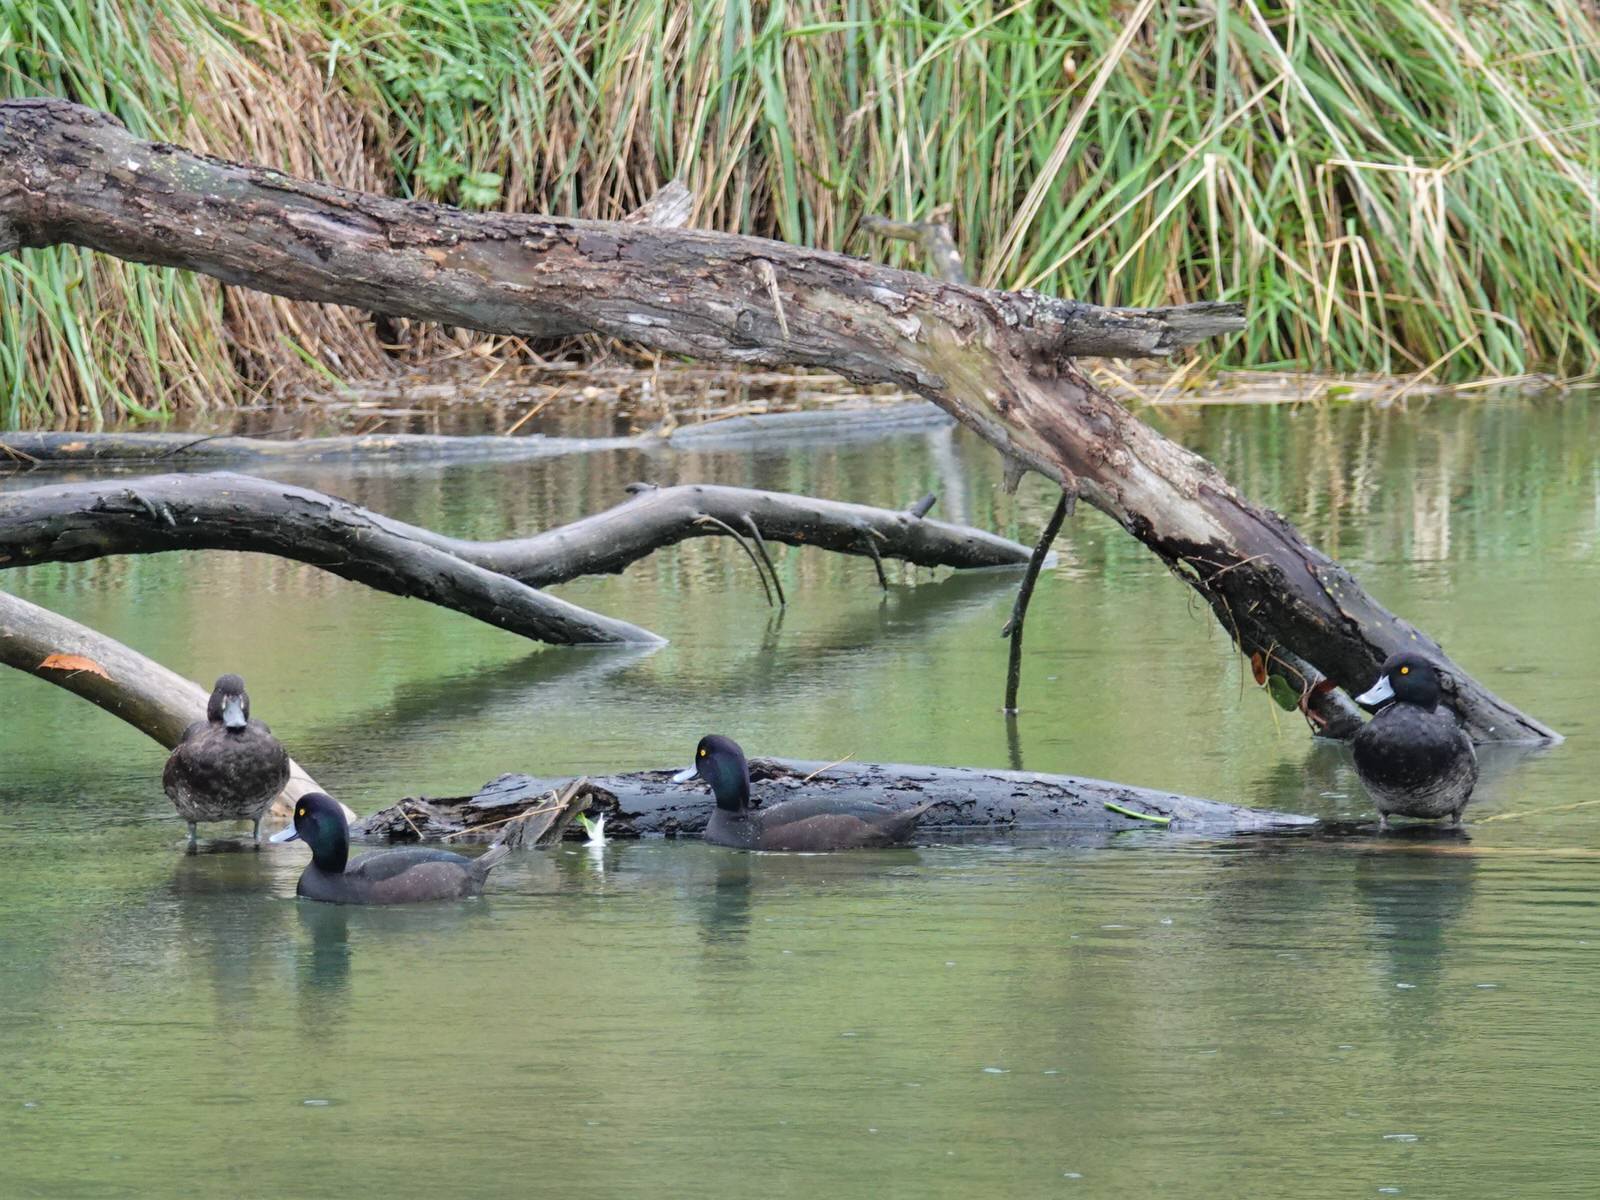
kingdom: Animalia
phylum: Chordata
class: Aves
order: Anseriformes
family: Anatidae
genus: Aythya
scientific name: Aythya novaeseelandiae
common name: New zealand scaup
